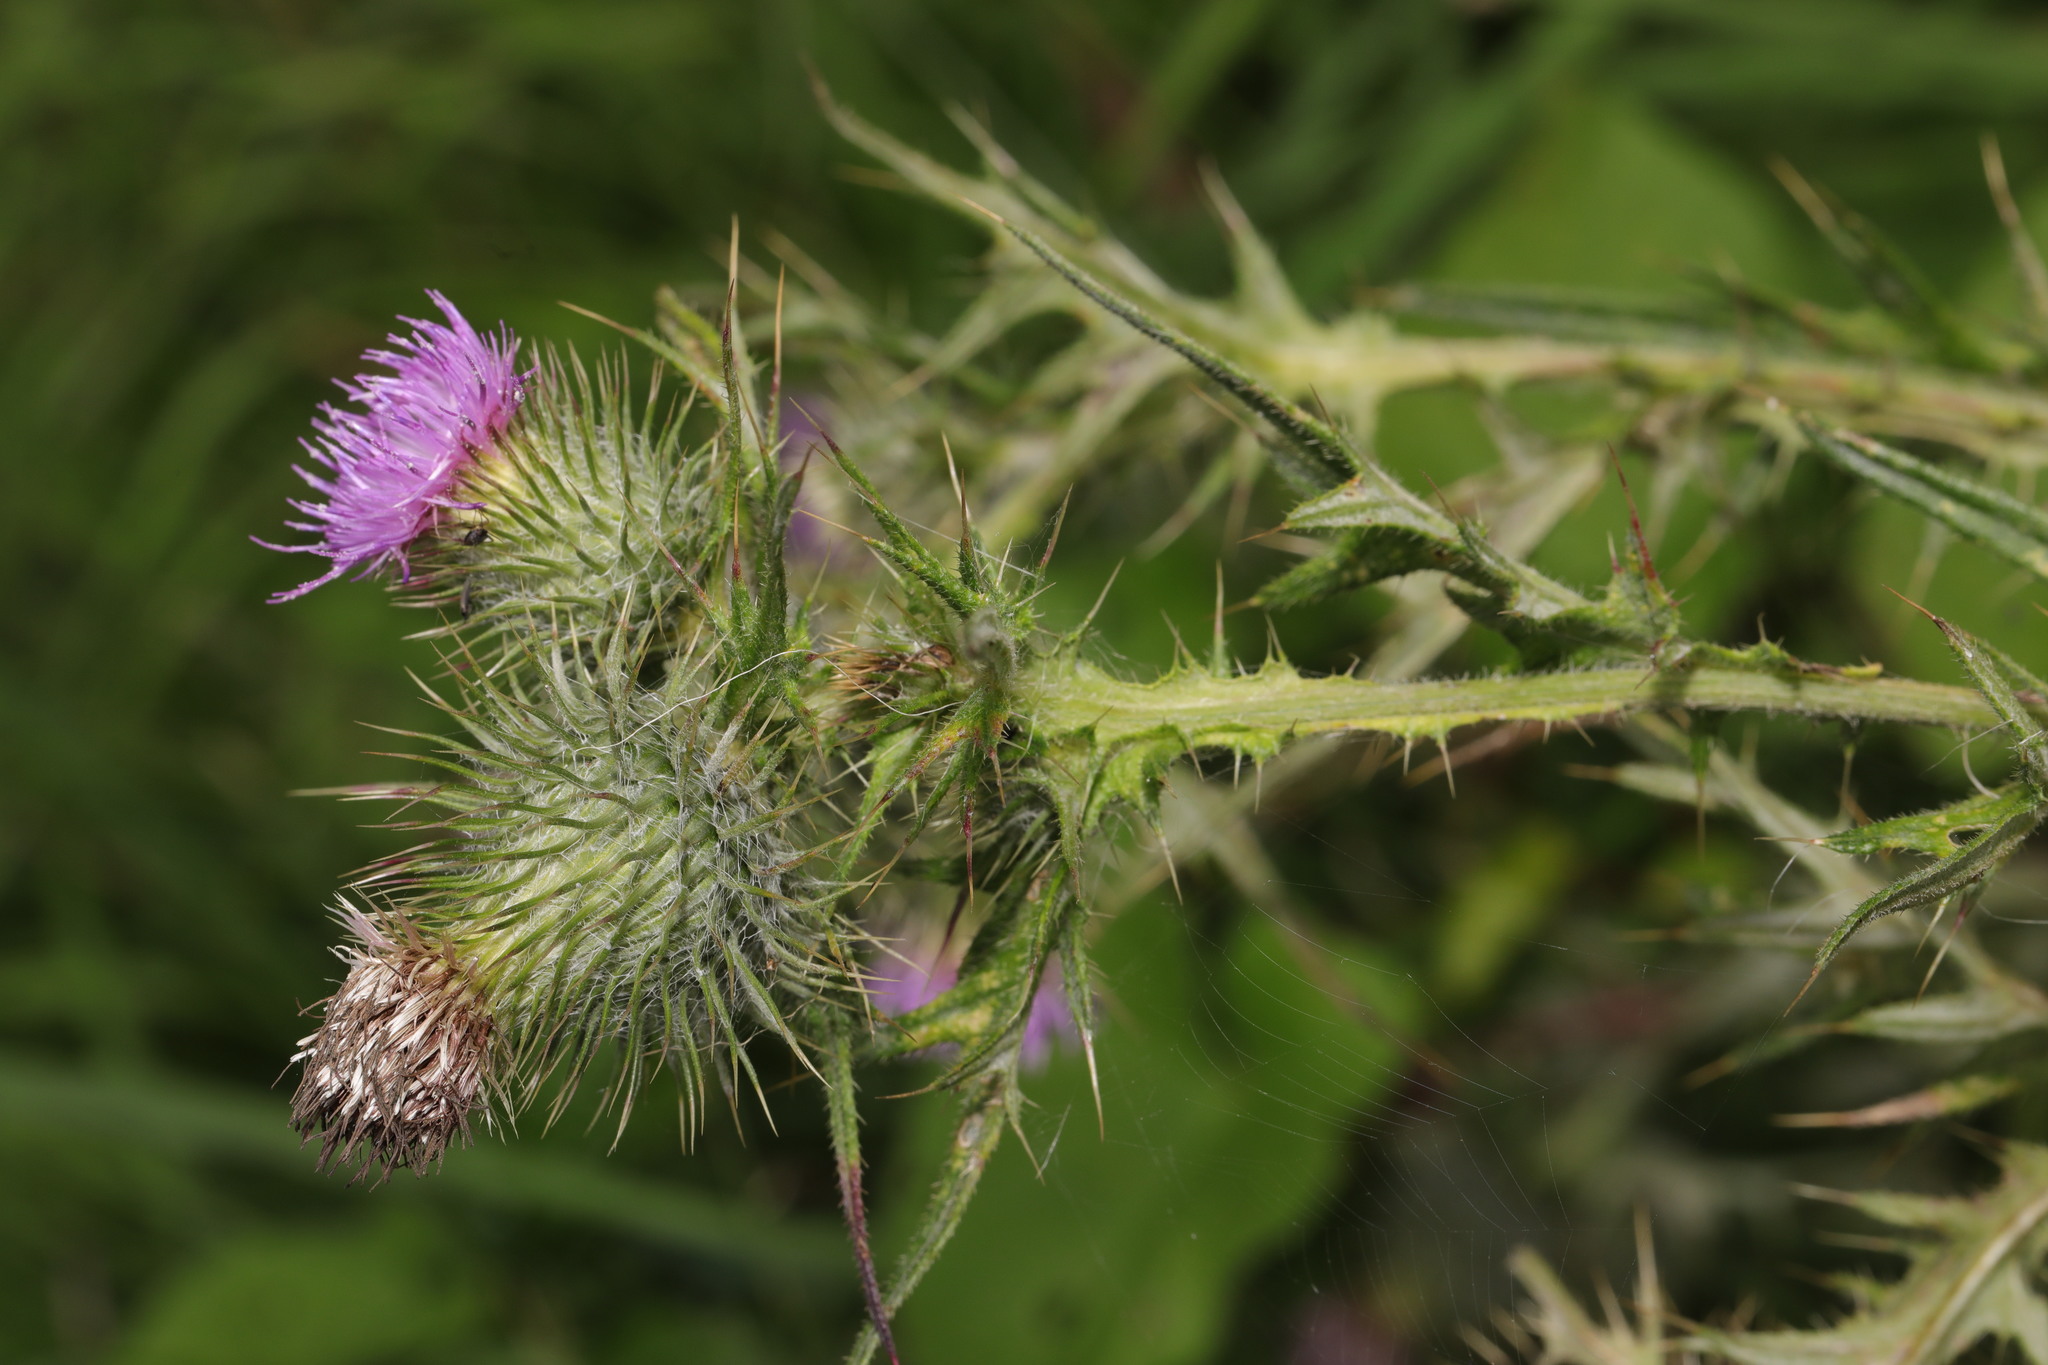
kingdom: Plantae
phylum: Tracheophyta
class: Magnoliopsida
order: Asterales
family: Asteraceae
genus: Cirsium
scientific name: Cirsium vulgare
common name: Bull thistle
